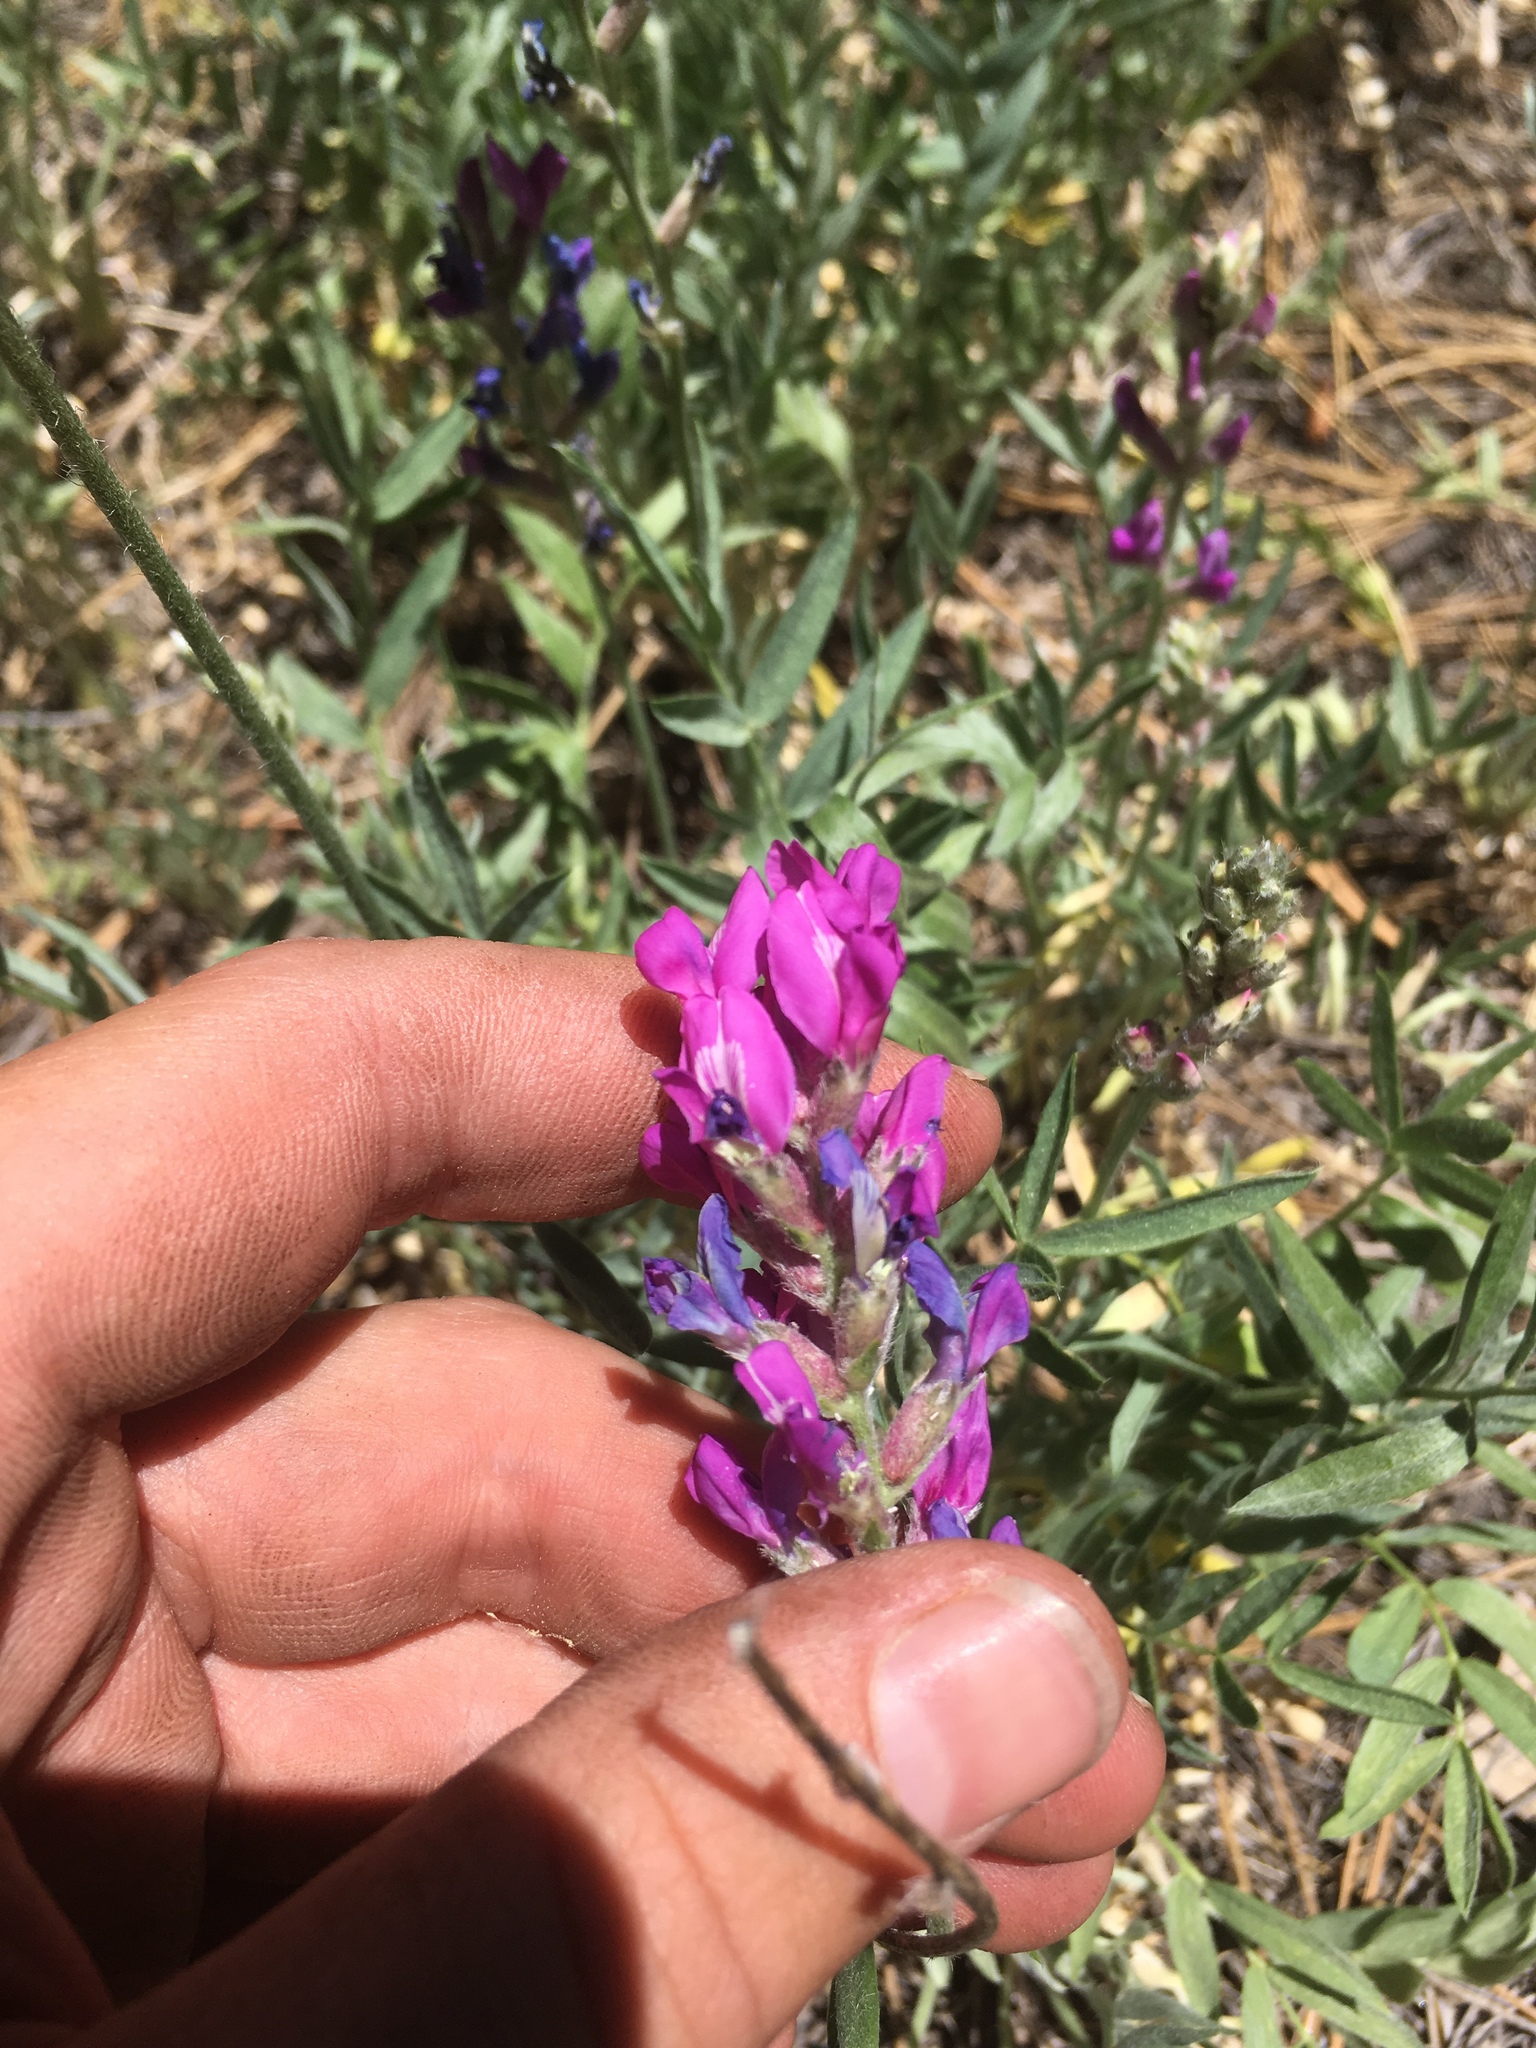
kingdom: Plantae
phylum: Tracheophyta
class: Magnoliopsida
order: Fabales
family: Fabaceae
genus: Oxytropis
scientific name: Oxytropis lambertii
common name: Purple locoweed
